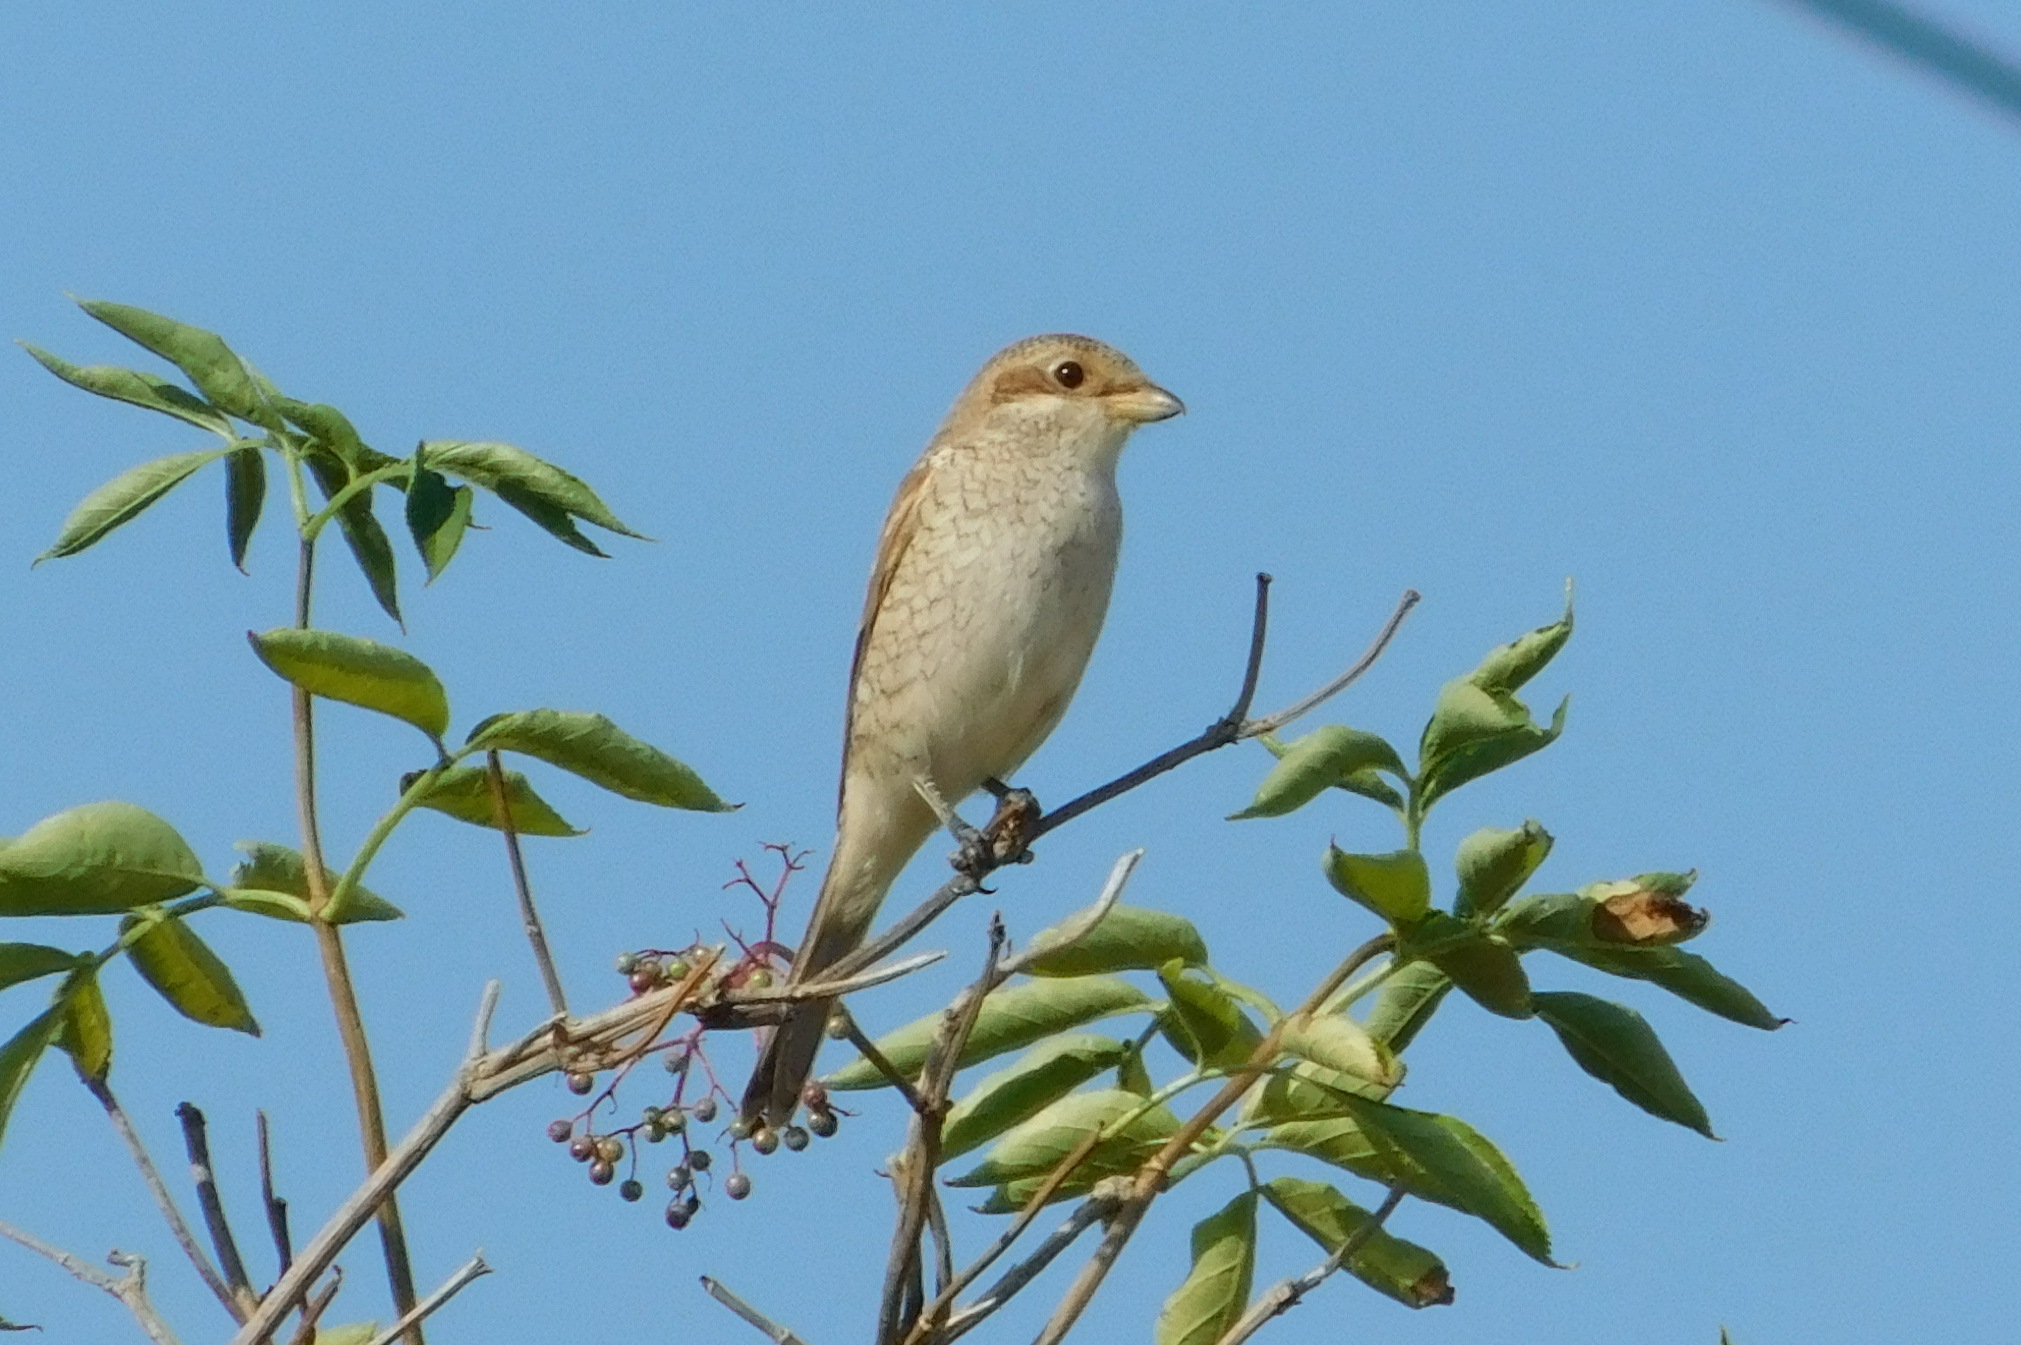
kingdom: Animalia
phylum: Chordata
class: Aves
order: Passeriformes
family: Laniidae
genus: Lanius
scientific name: Lanius collurio
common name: Red-backed shrike
